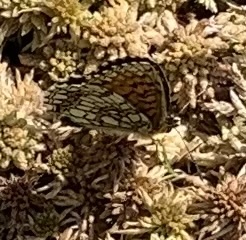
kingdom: Animalia
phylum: Arthropoda
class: Insecta
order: Lepidoptera
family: Nymphalidae
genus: Melitaea
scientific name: Melitaea athalia
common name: Heath fritillary
